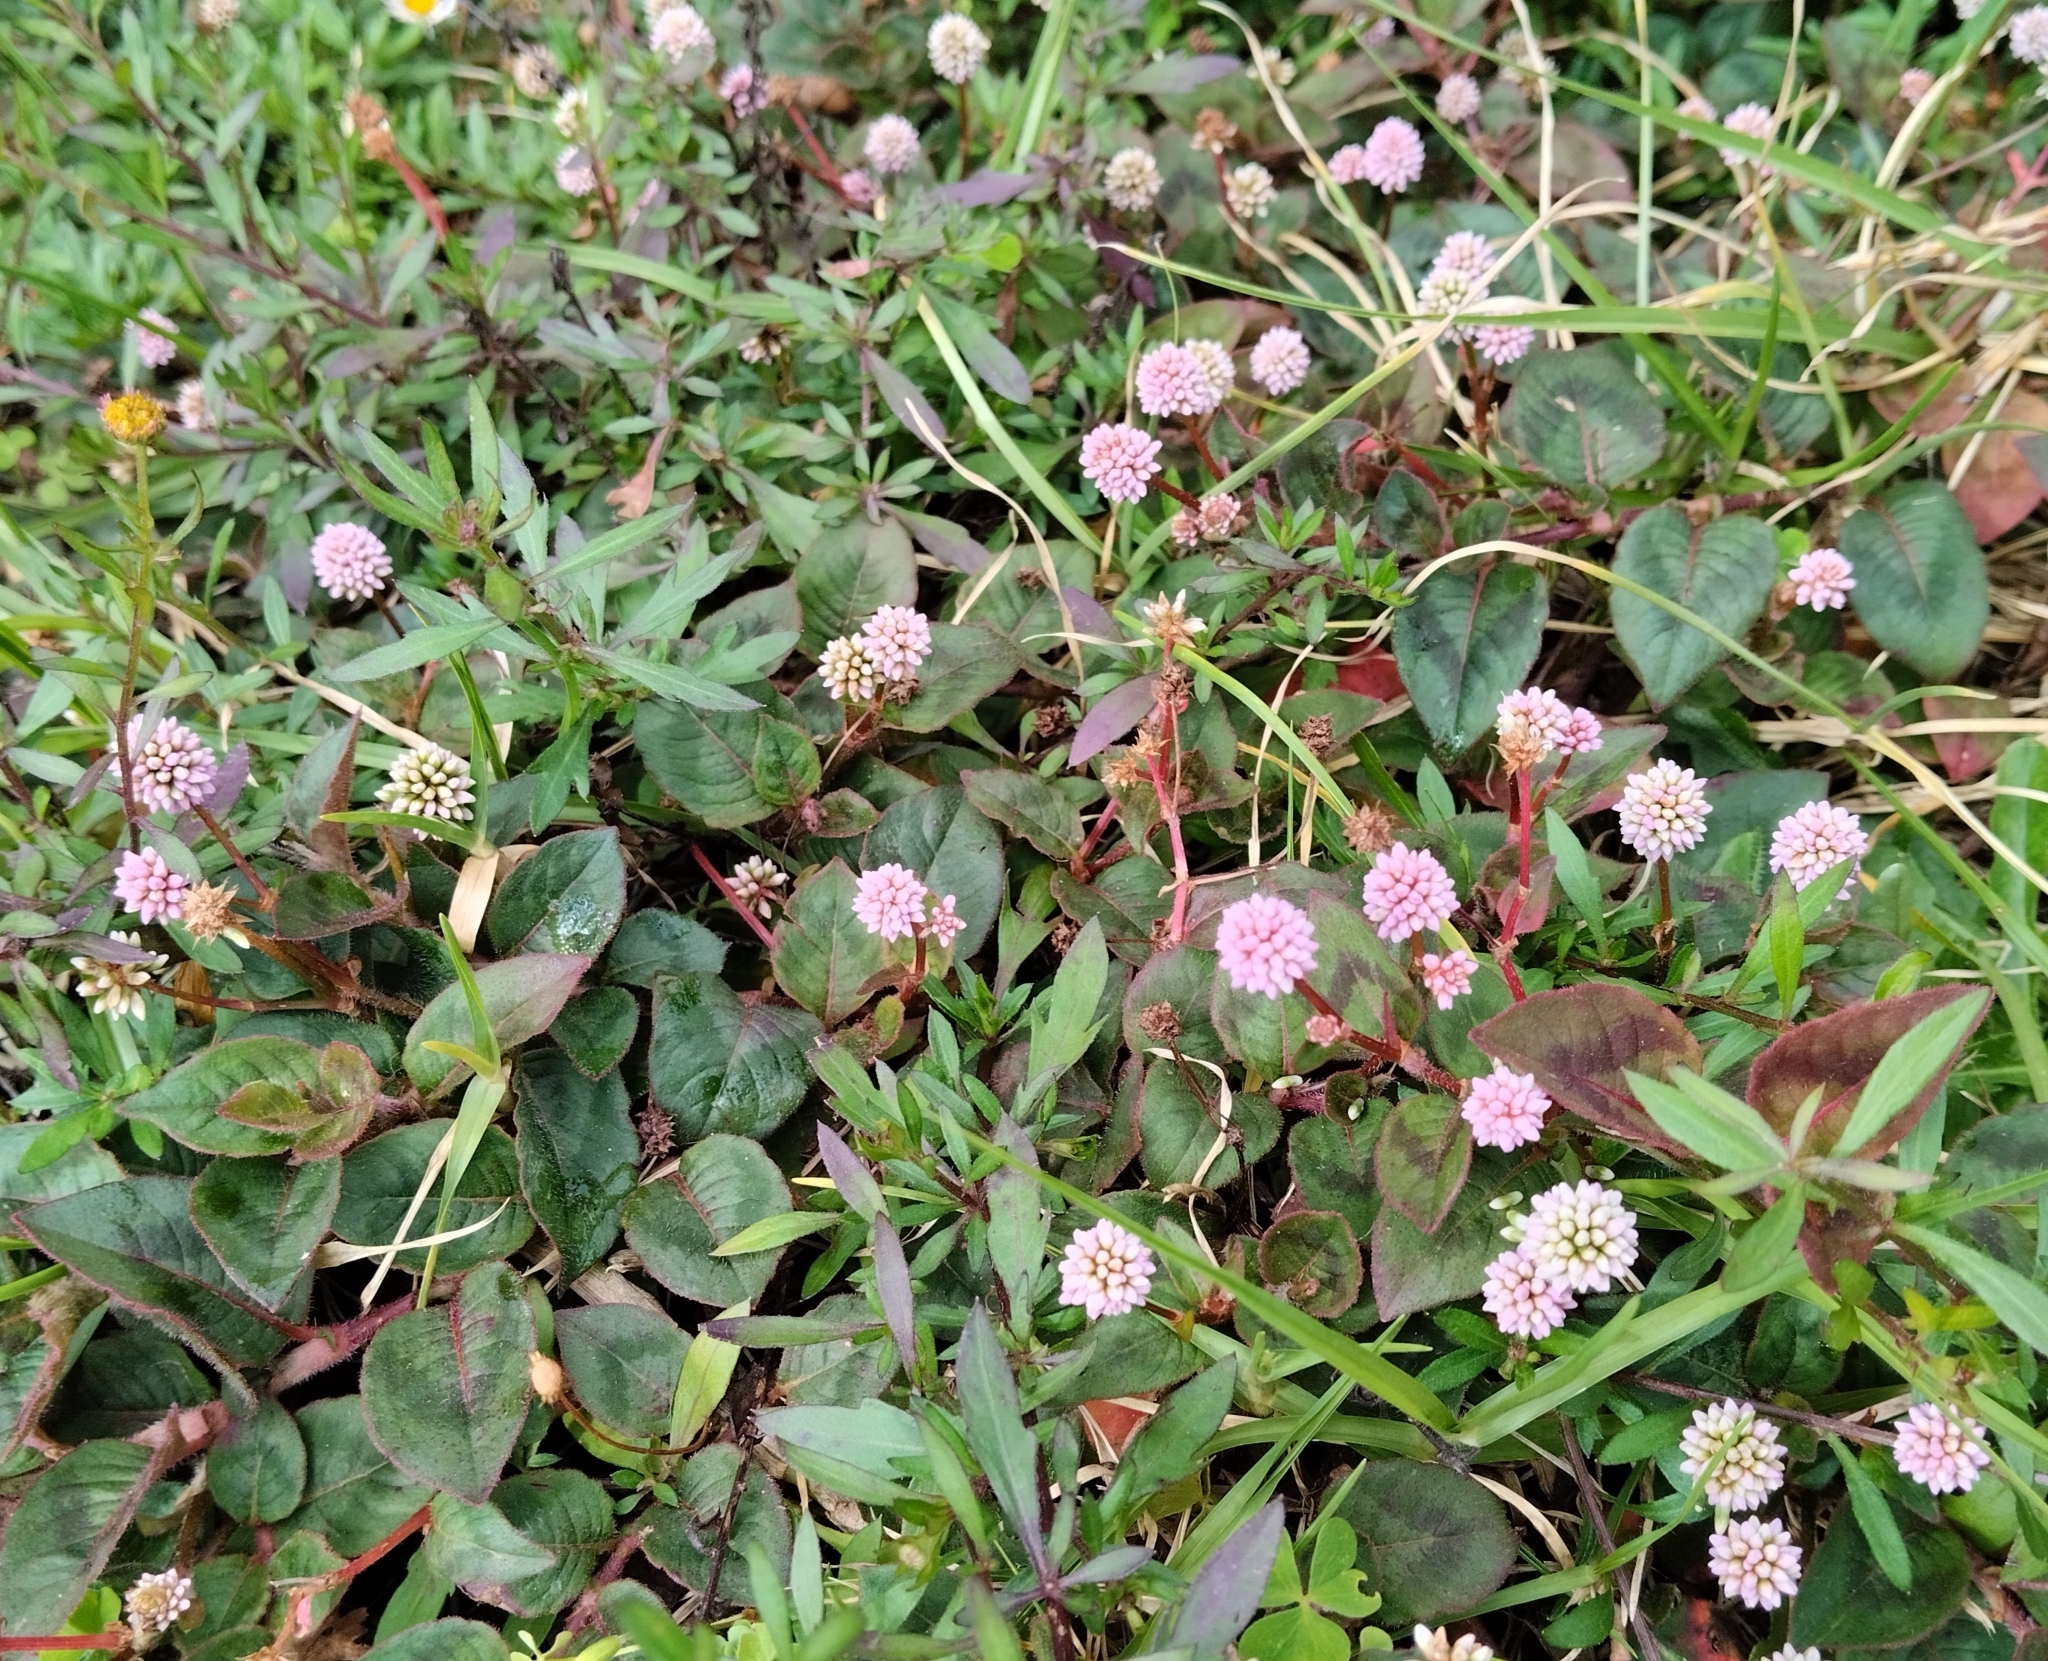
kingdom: Plantae
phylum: Tracheophyta
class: Magnoliopsida
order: Caryophyllales
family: Polygonaceae
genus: Persicaria
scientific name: Persicaria capitata
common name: Pinkhead smartweed
